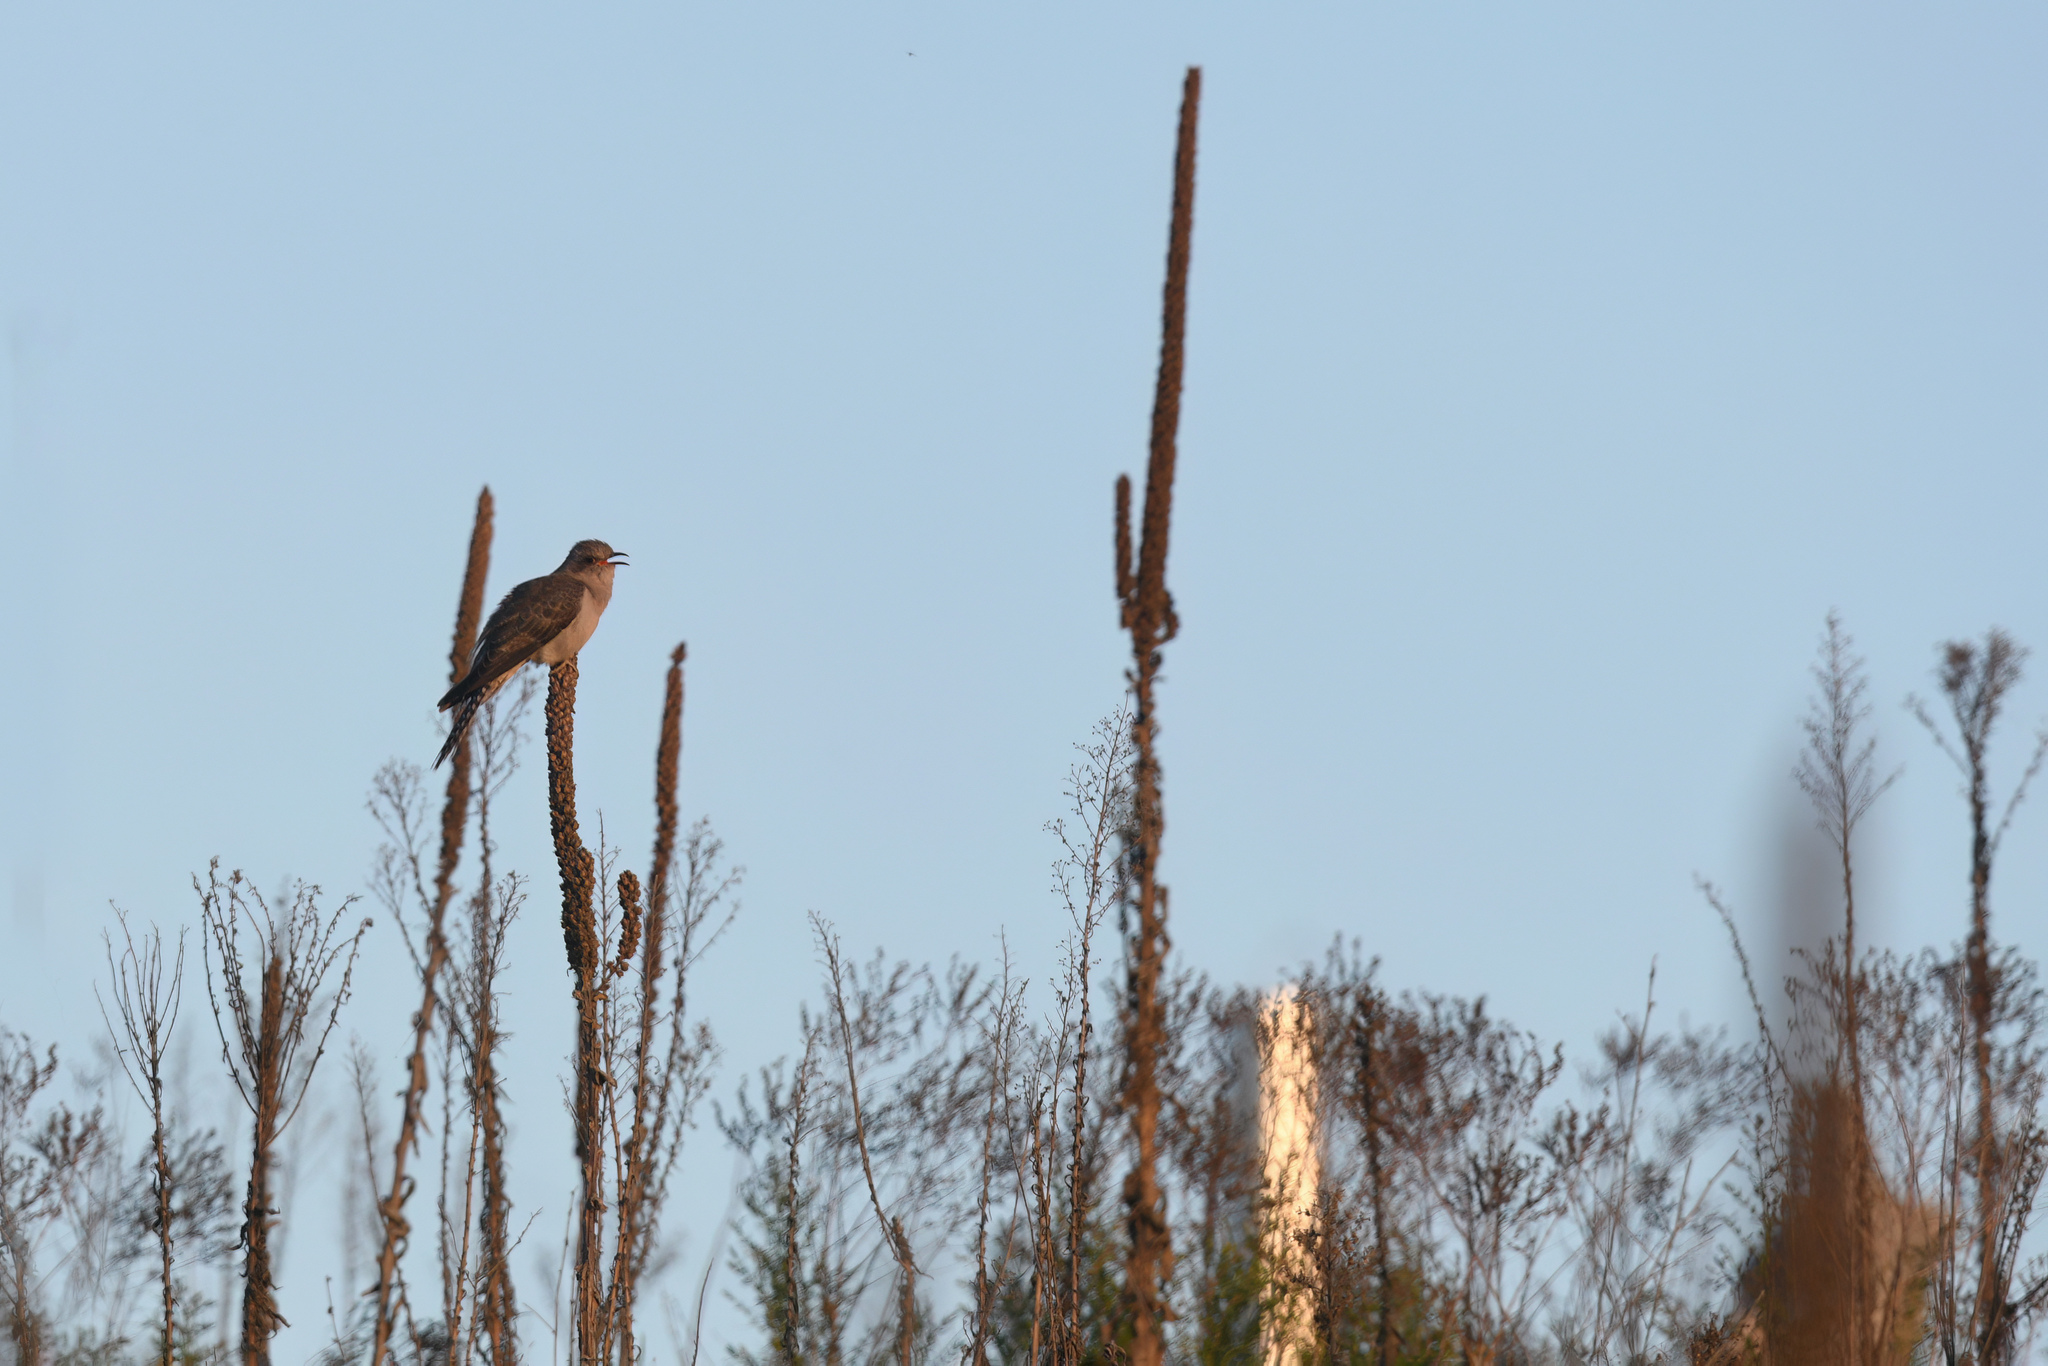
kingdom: Animalia
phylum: Chordata
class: Aves
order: Cuculiformes
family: Cuculidae
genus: Cuculus
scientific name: Cuculus pallidus
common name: Pallid cuckoo
